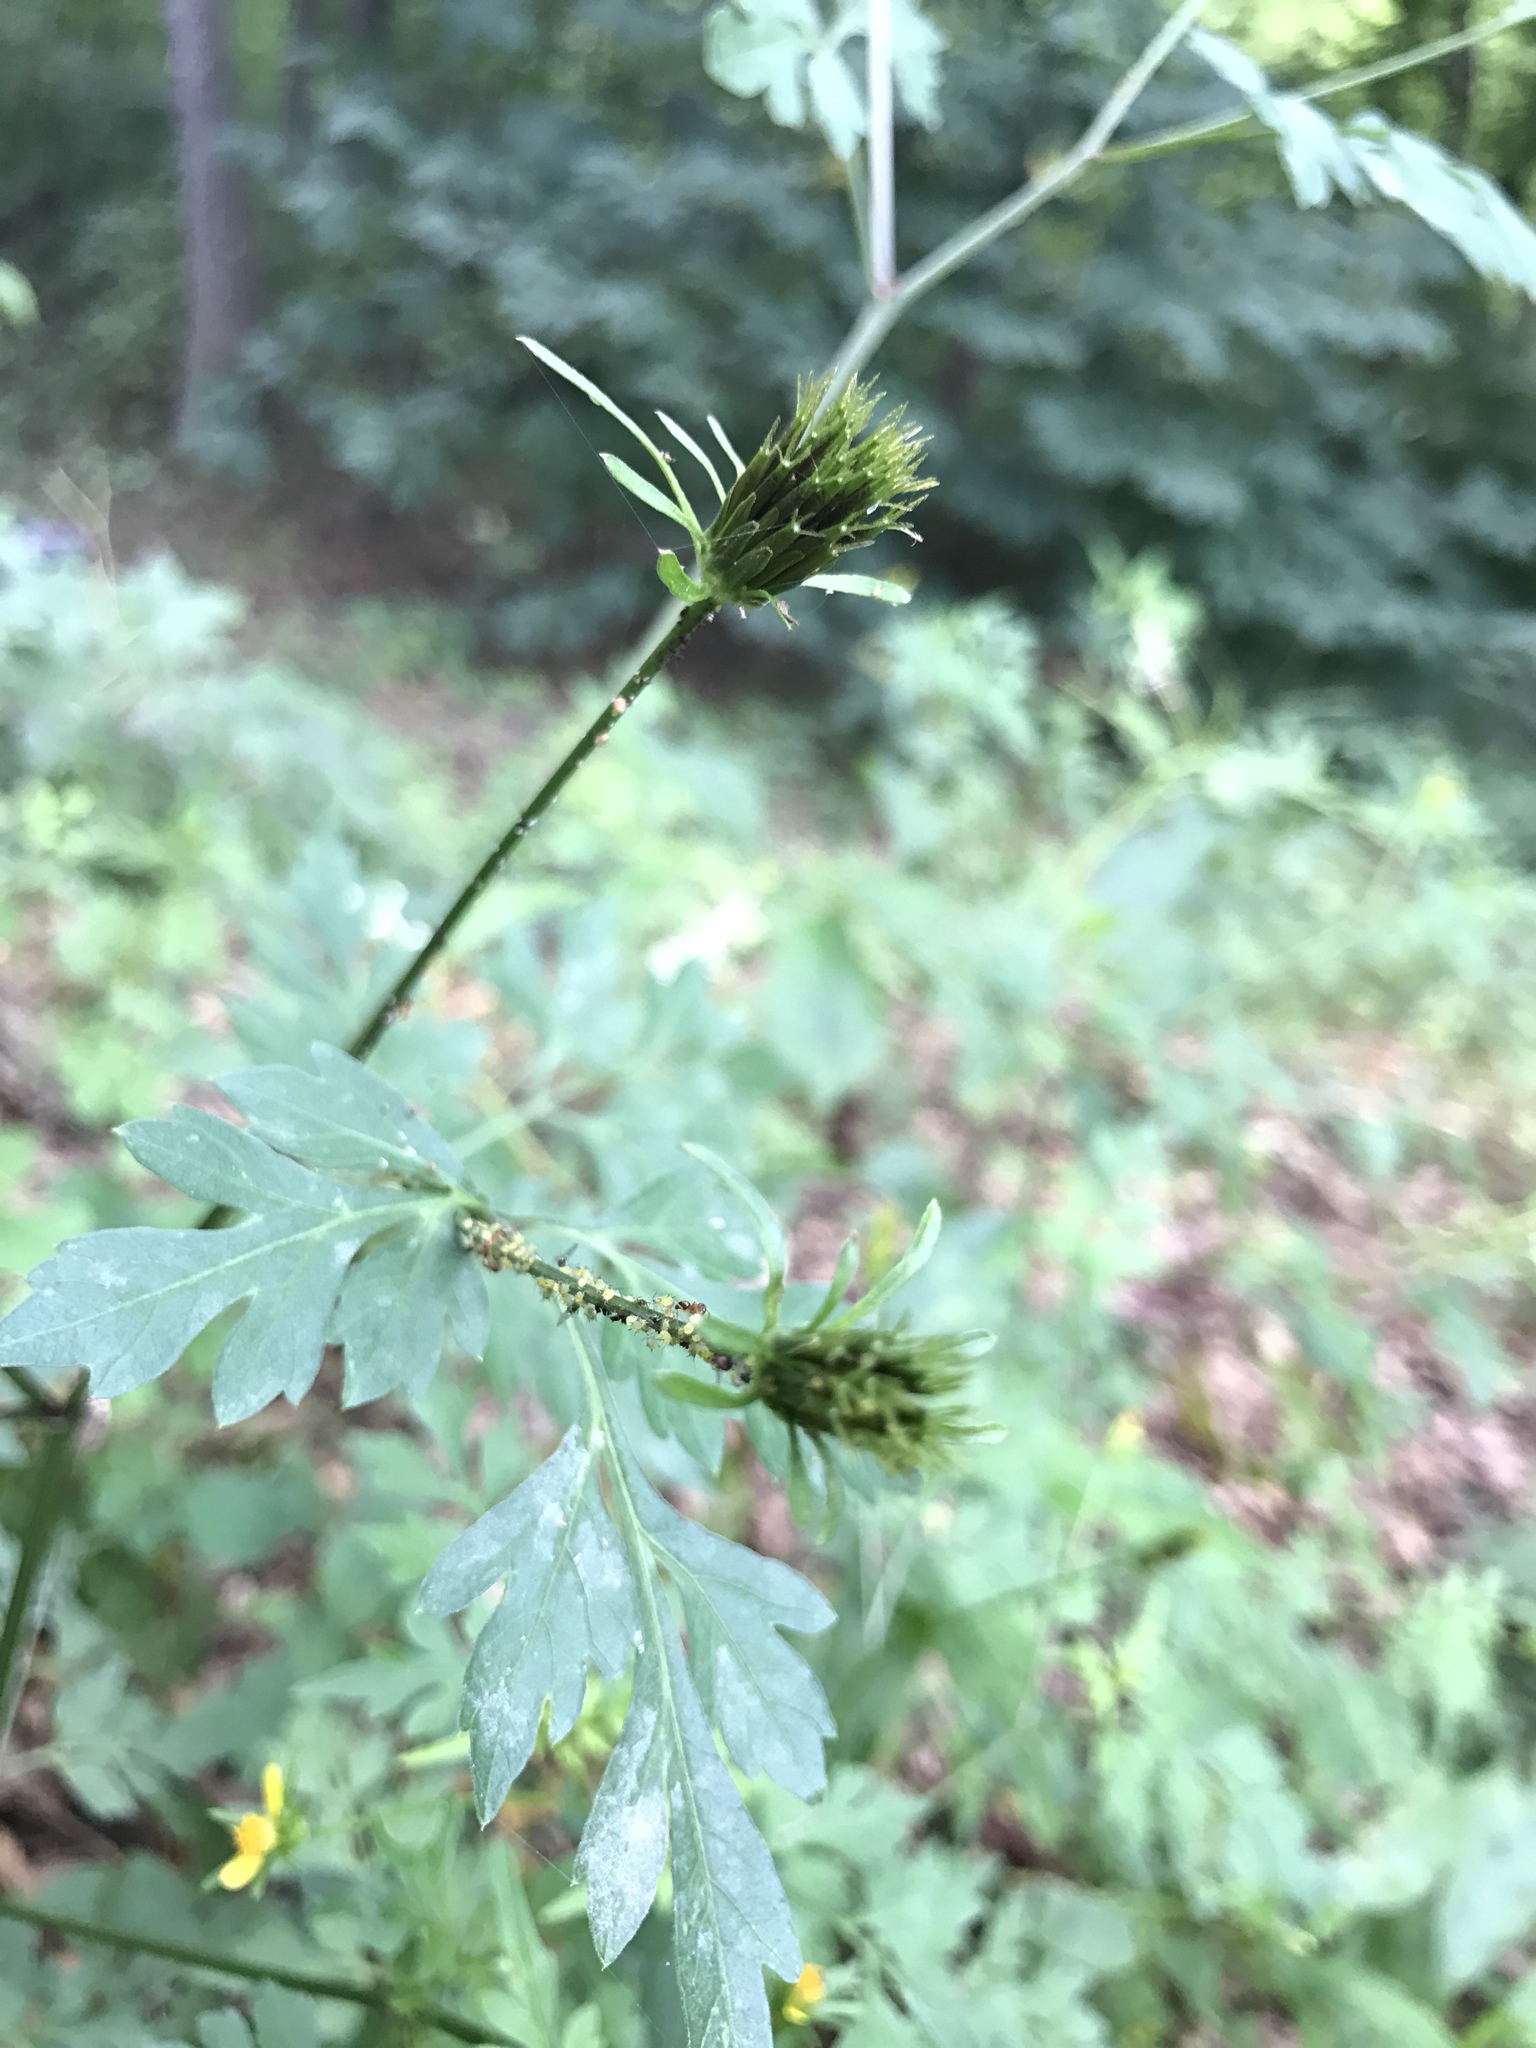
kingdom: Plantae
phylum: Tracheophyta
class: Magnoliopsida
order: Asterales
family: Asteraceae
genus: Bidens
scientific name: Bidens bipinnata
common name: Spanish-needles
